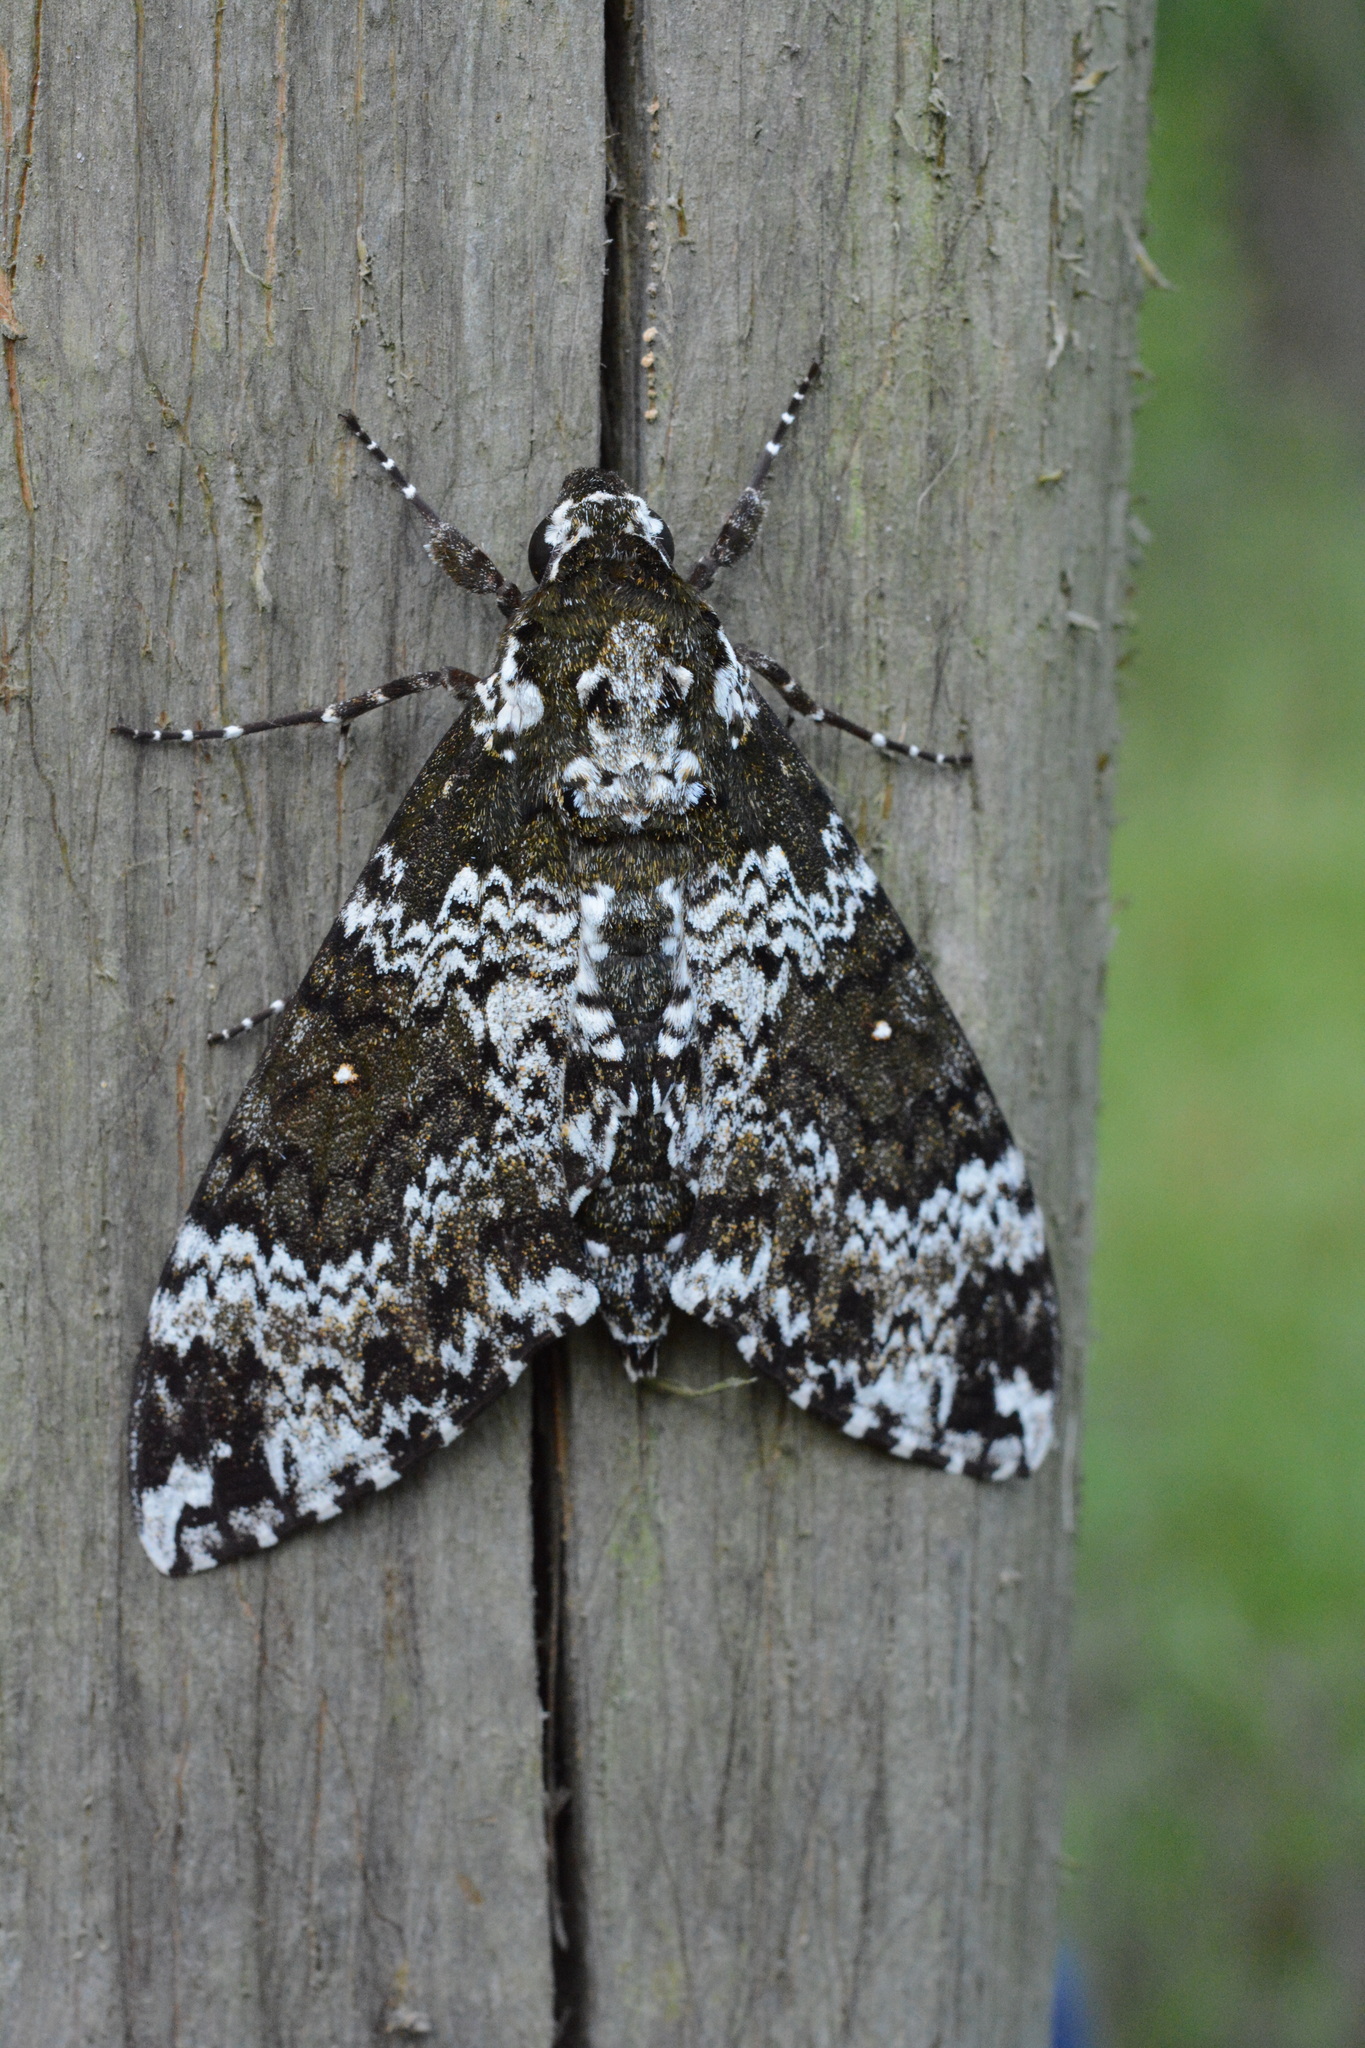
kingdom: Animalia
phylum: Arthropoda
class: Insecta
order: Lepidoptera
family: Sphingidae
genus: Manduca
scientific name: Manduca rustica
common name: Rustic sphinx
